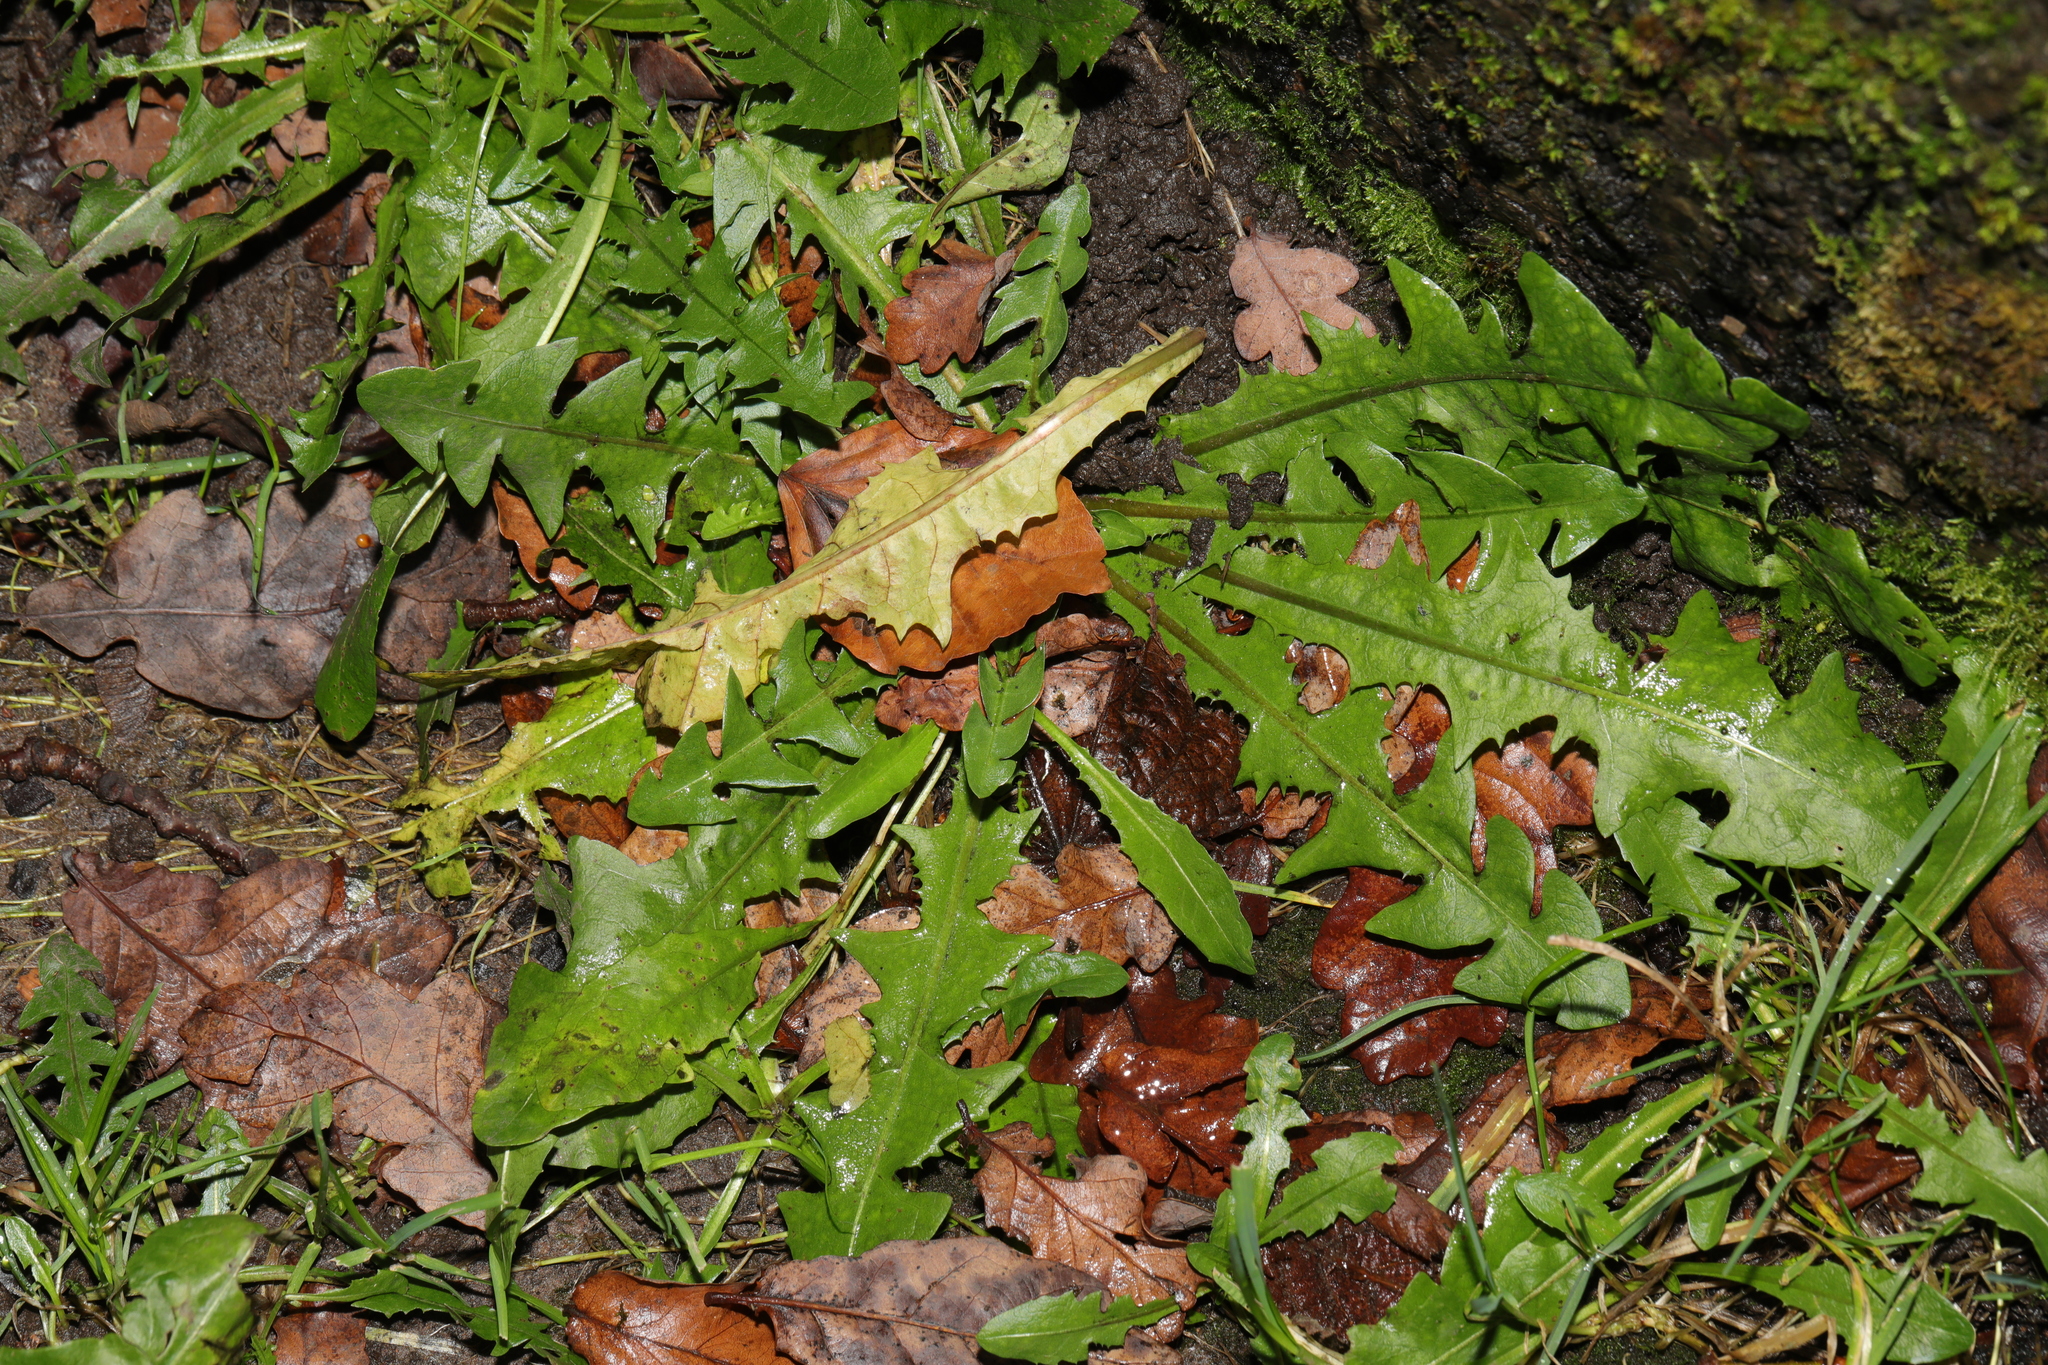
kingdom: Plantae
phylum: Tracheophyta
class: Magnoliopsida
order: Asterales
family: Asteraceae
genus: Taraxacum
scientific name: Taraxacum officinale
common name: Common dandelion
